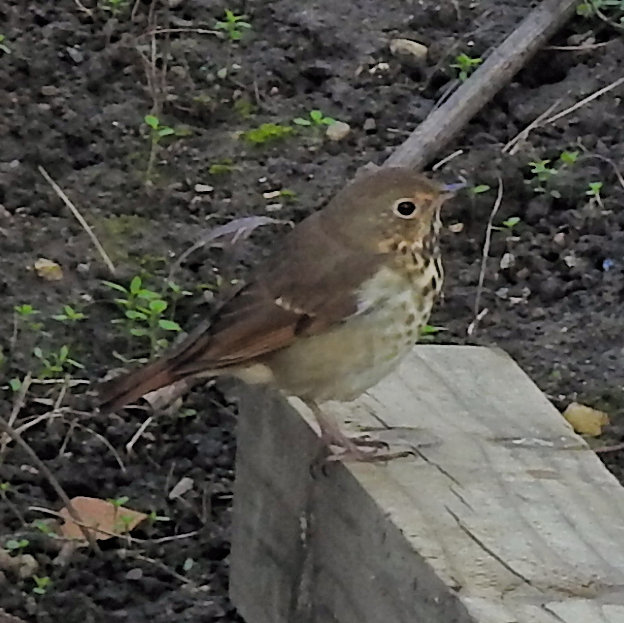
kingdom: Animalia
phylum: Chordata
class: Aves
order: Passeriformes
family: Turdidae
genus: Catharus
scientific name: Catharus guttatus
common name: Hermit thrush
